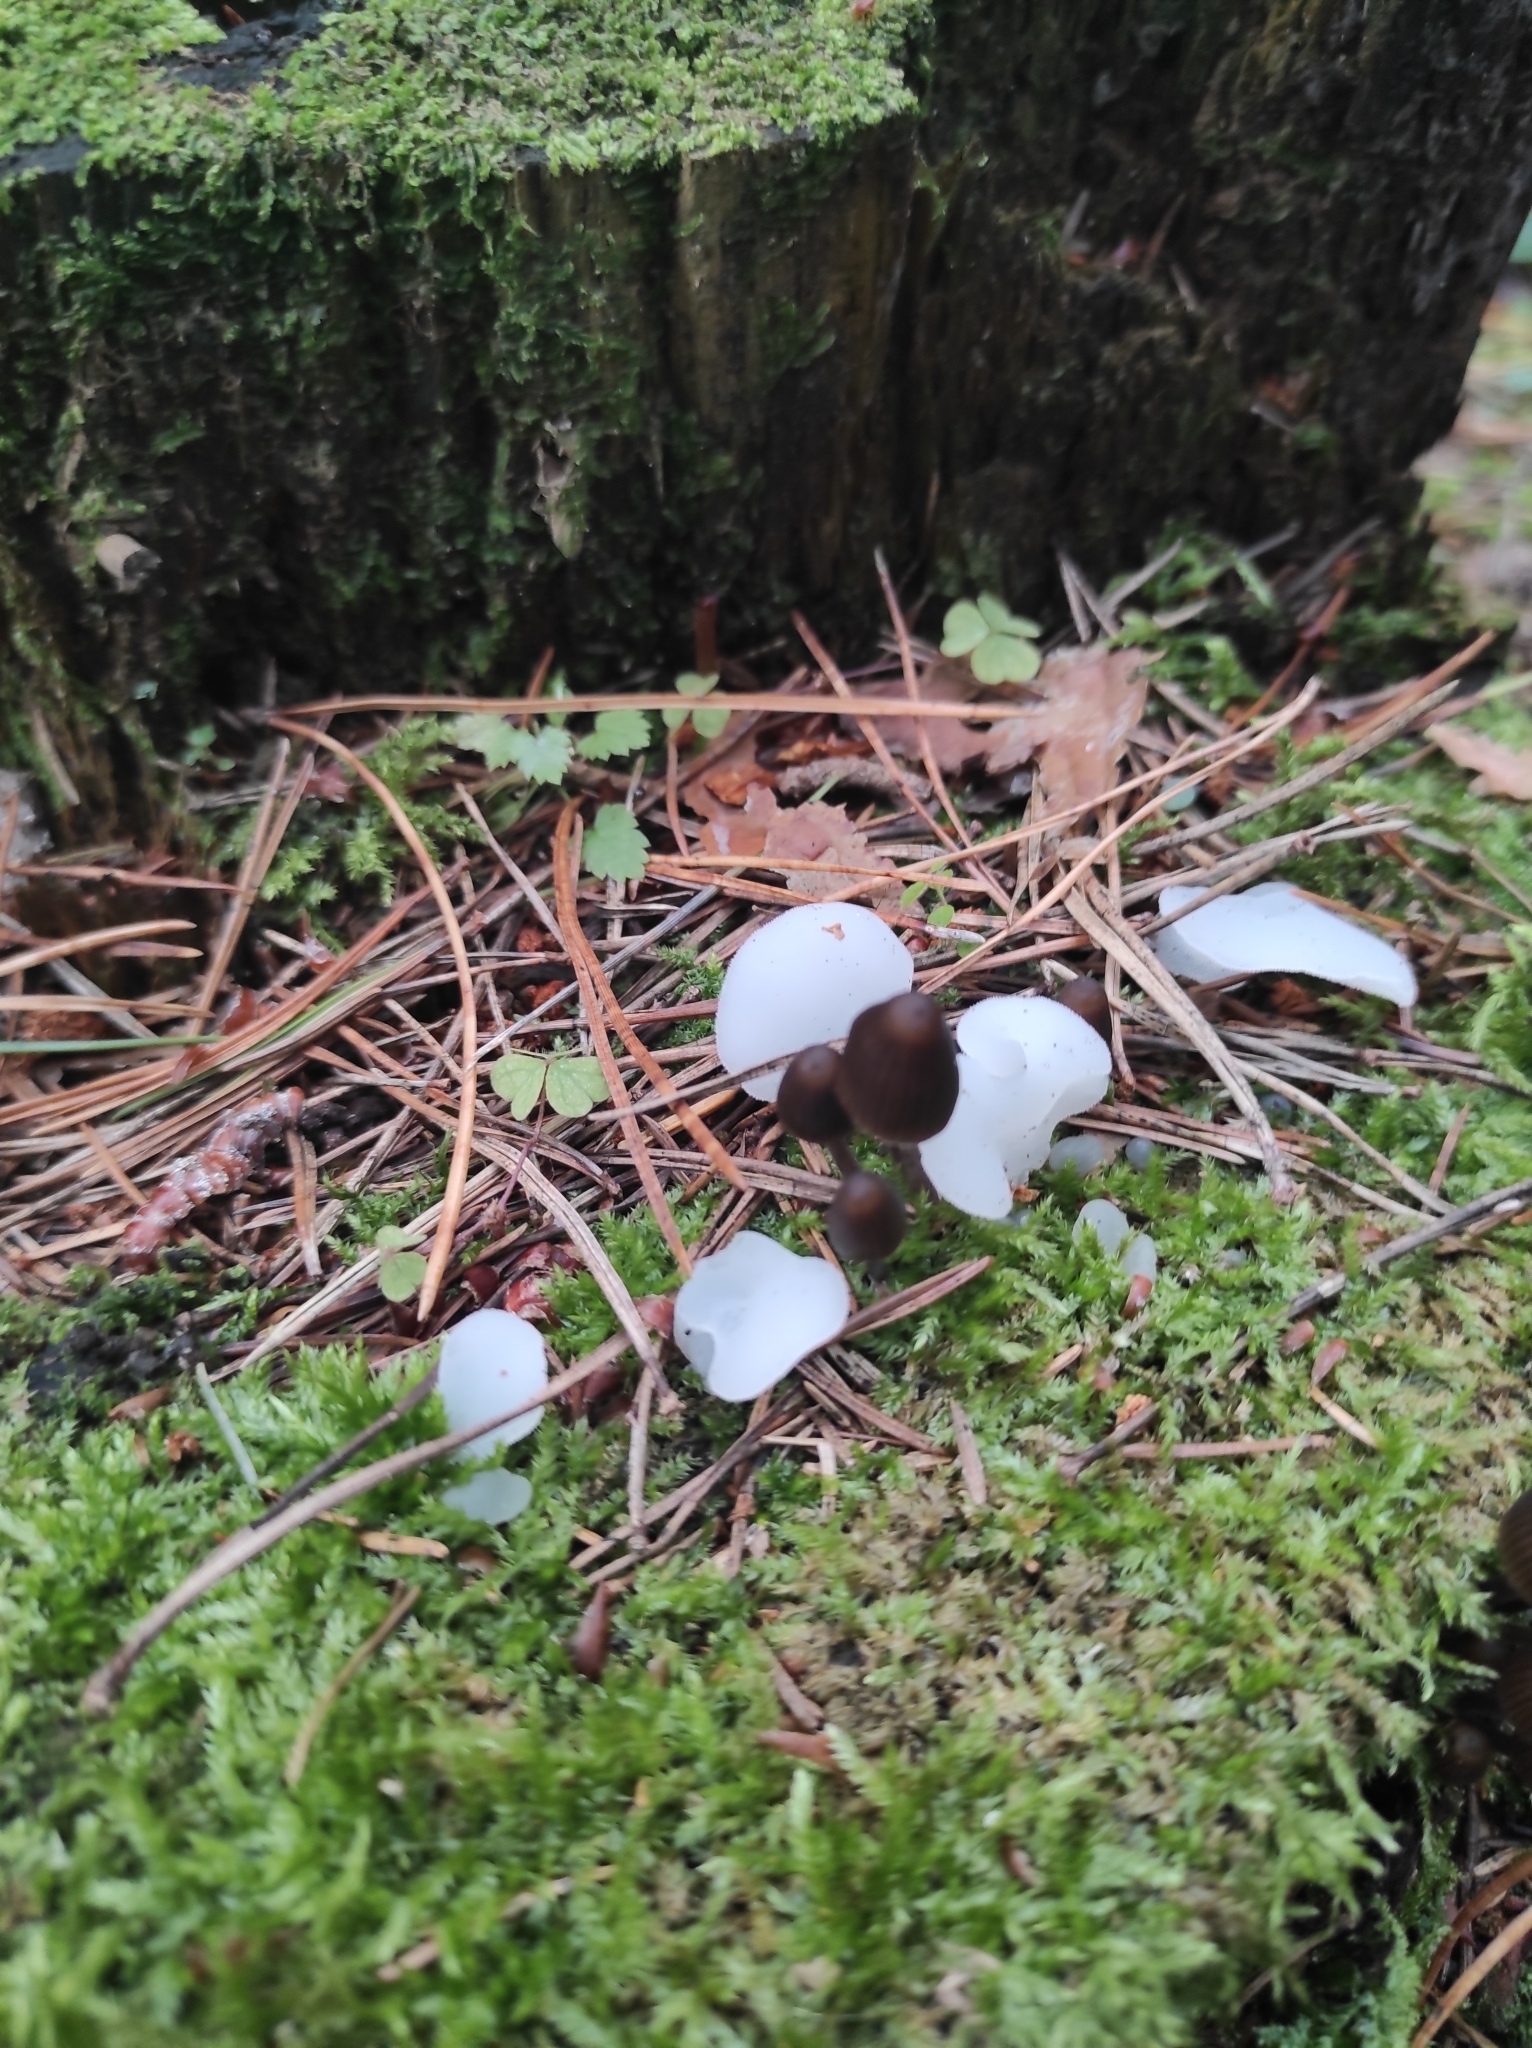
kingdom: Fungi
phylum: Basidiomycota
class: Agaricomycetes
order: Auriculariales
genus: Pseudohydnum
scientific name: Pseudohydnum gelatinosum
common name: Jelly tongue
